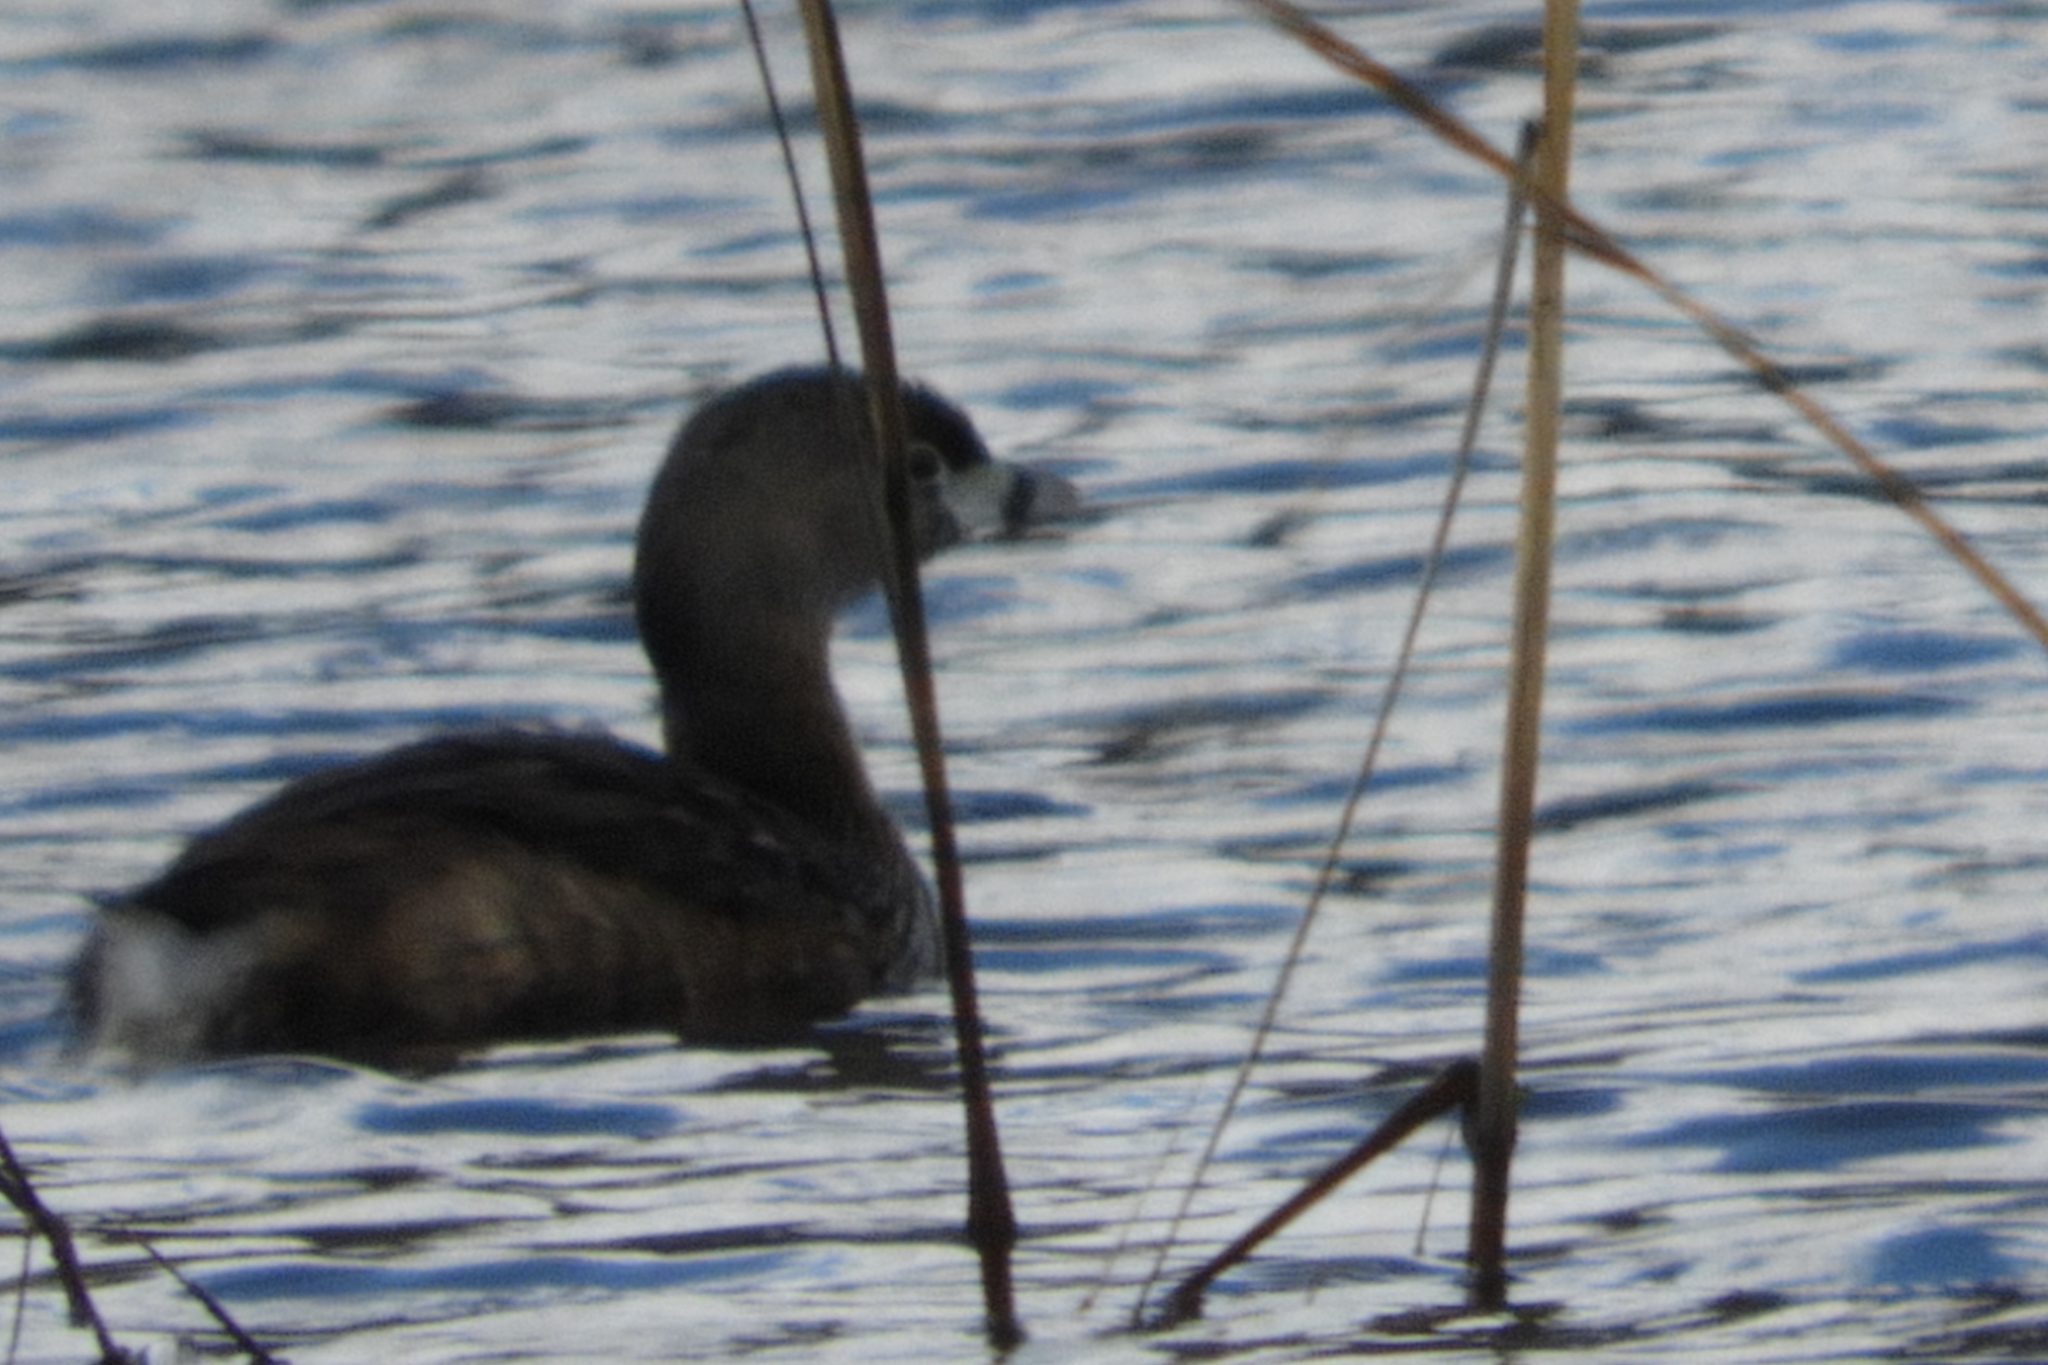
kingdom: Animalia
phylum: Chordata
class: Aves
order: Podicipediformes
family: Podicipedidae
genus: Podilymbus
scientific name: Podilymbus podiceps
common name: Pied-billed grebe
